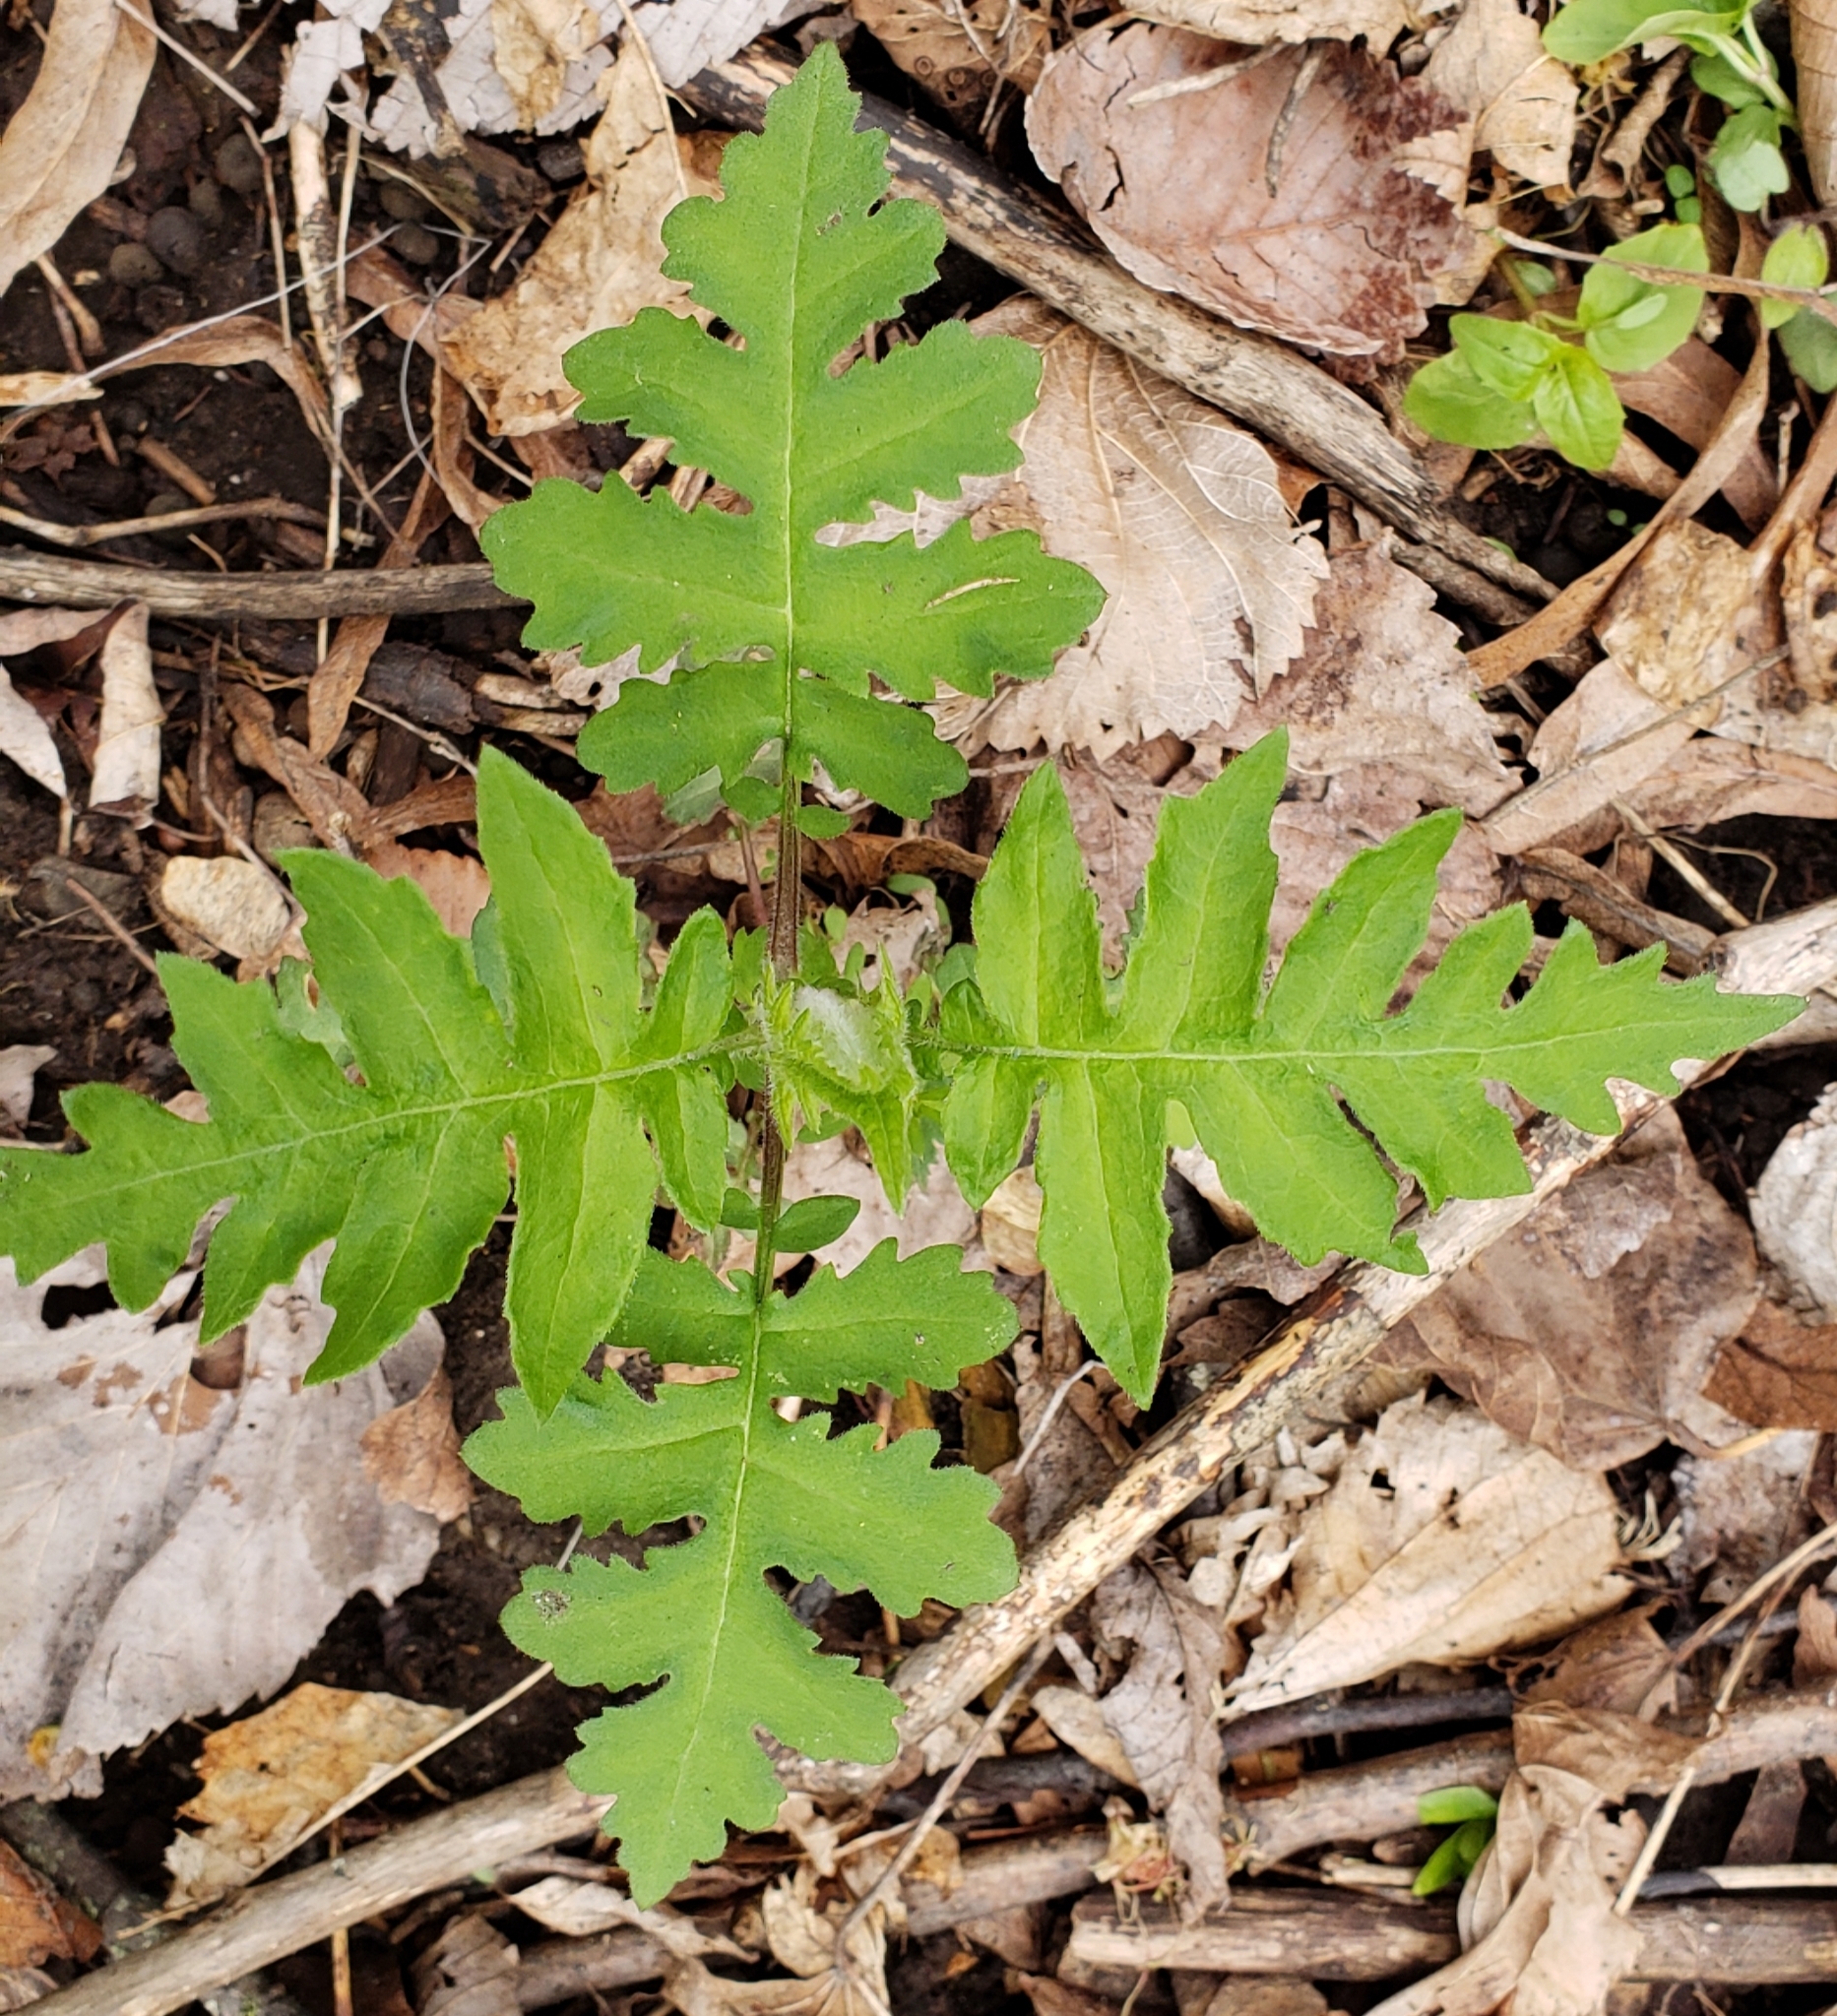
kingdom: Plantae
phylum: Tracheophyta
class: Magnoliopsida
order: Asterales
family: Asteraceae
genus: Polymnia
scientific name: Polymnia canadensis
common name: Pale-flowered leafcup
